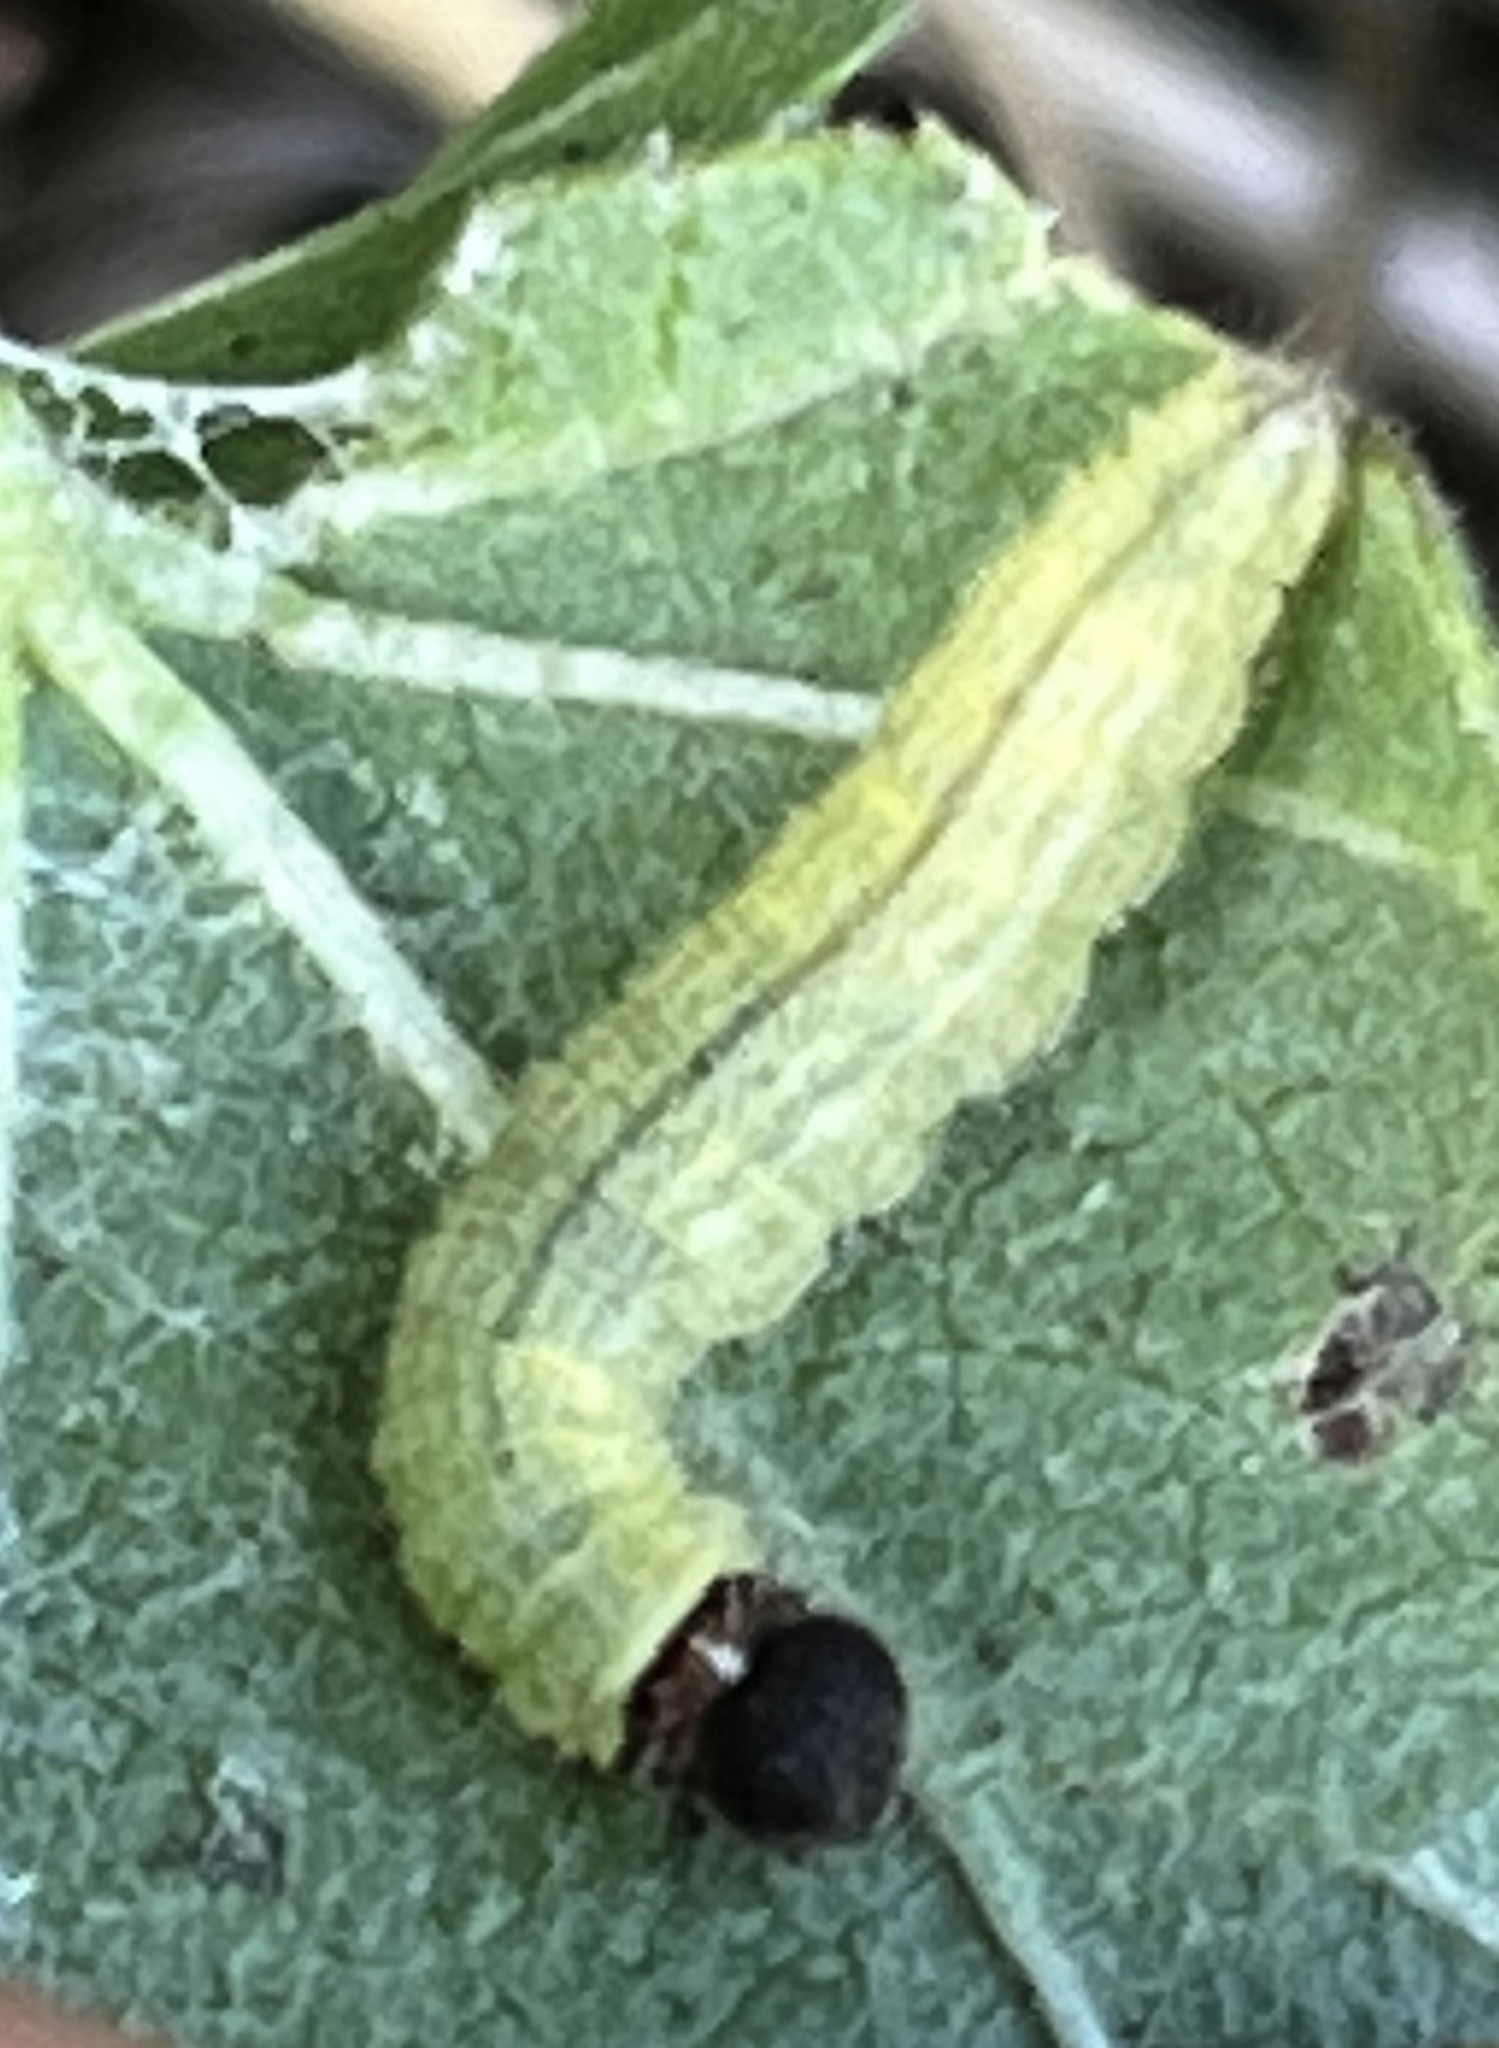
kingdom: Animalia
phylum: Arthropoda
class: Insecta
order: Lepidoptera
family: Hesperiidae
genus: Burnsius
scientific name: Burnsius communis
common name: Common checkered-skipper
